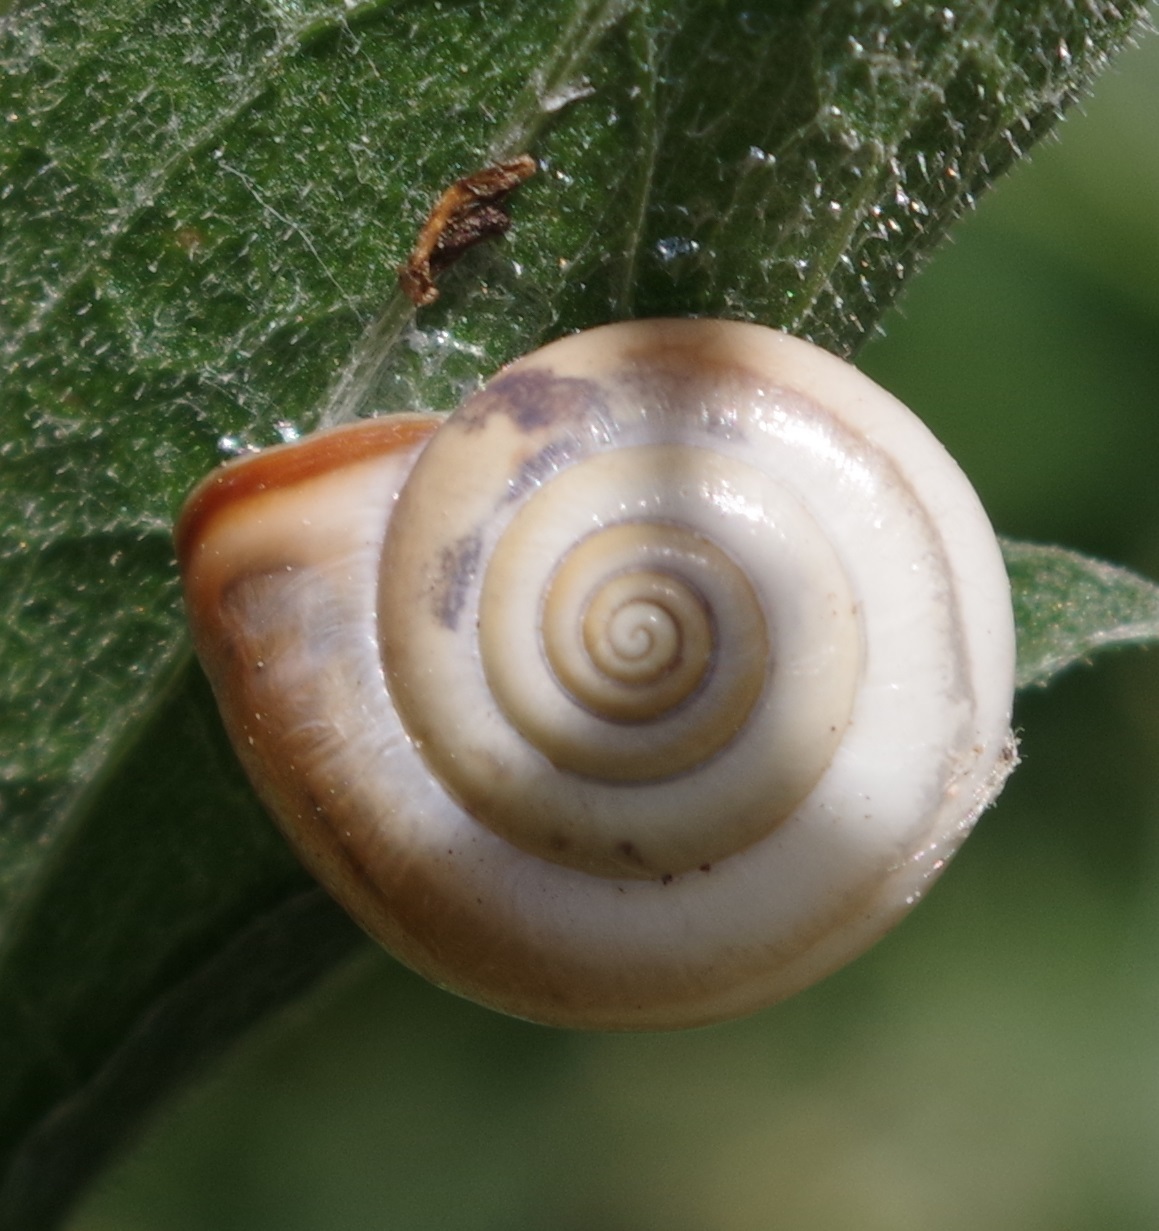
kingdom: Animalia
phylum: Mollusca
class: Gastropoda
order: Stylommatophora
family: Hygromiidae
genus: Monacha
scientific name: Monacha cartusiana
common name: Carthusian snail
